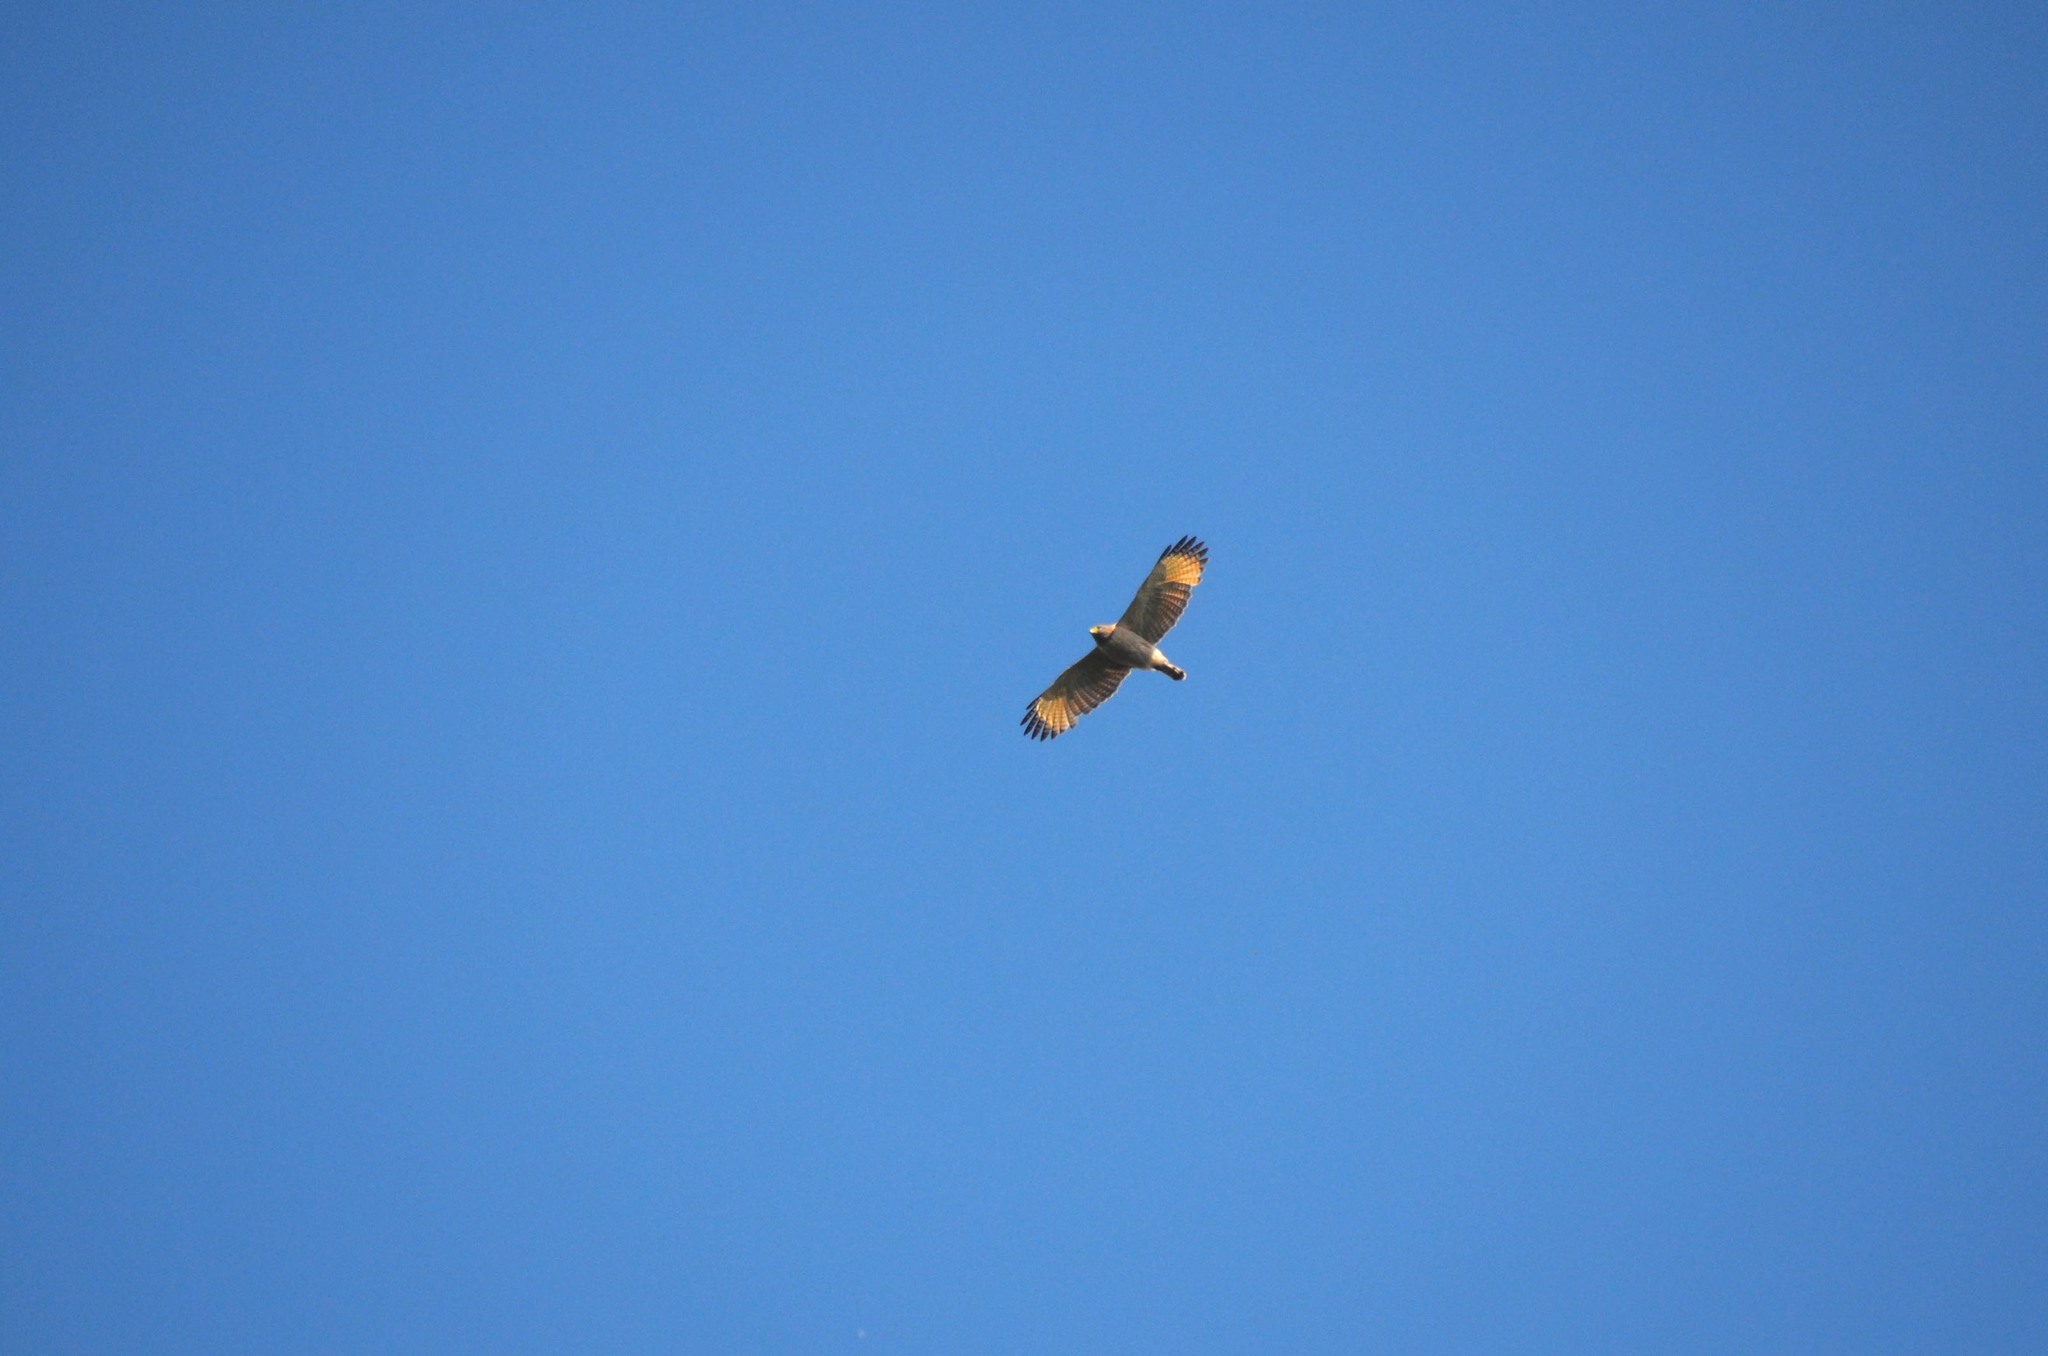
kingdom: Animalia
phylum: Chordata
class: Aves
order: Accipitriformes
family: Accipitridae
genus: Rupornis
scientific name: Rupornis magnirostris
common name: Roadside hawk
